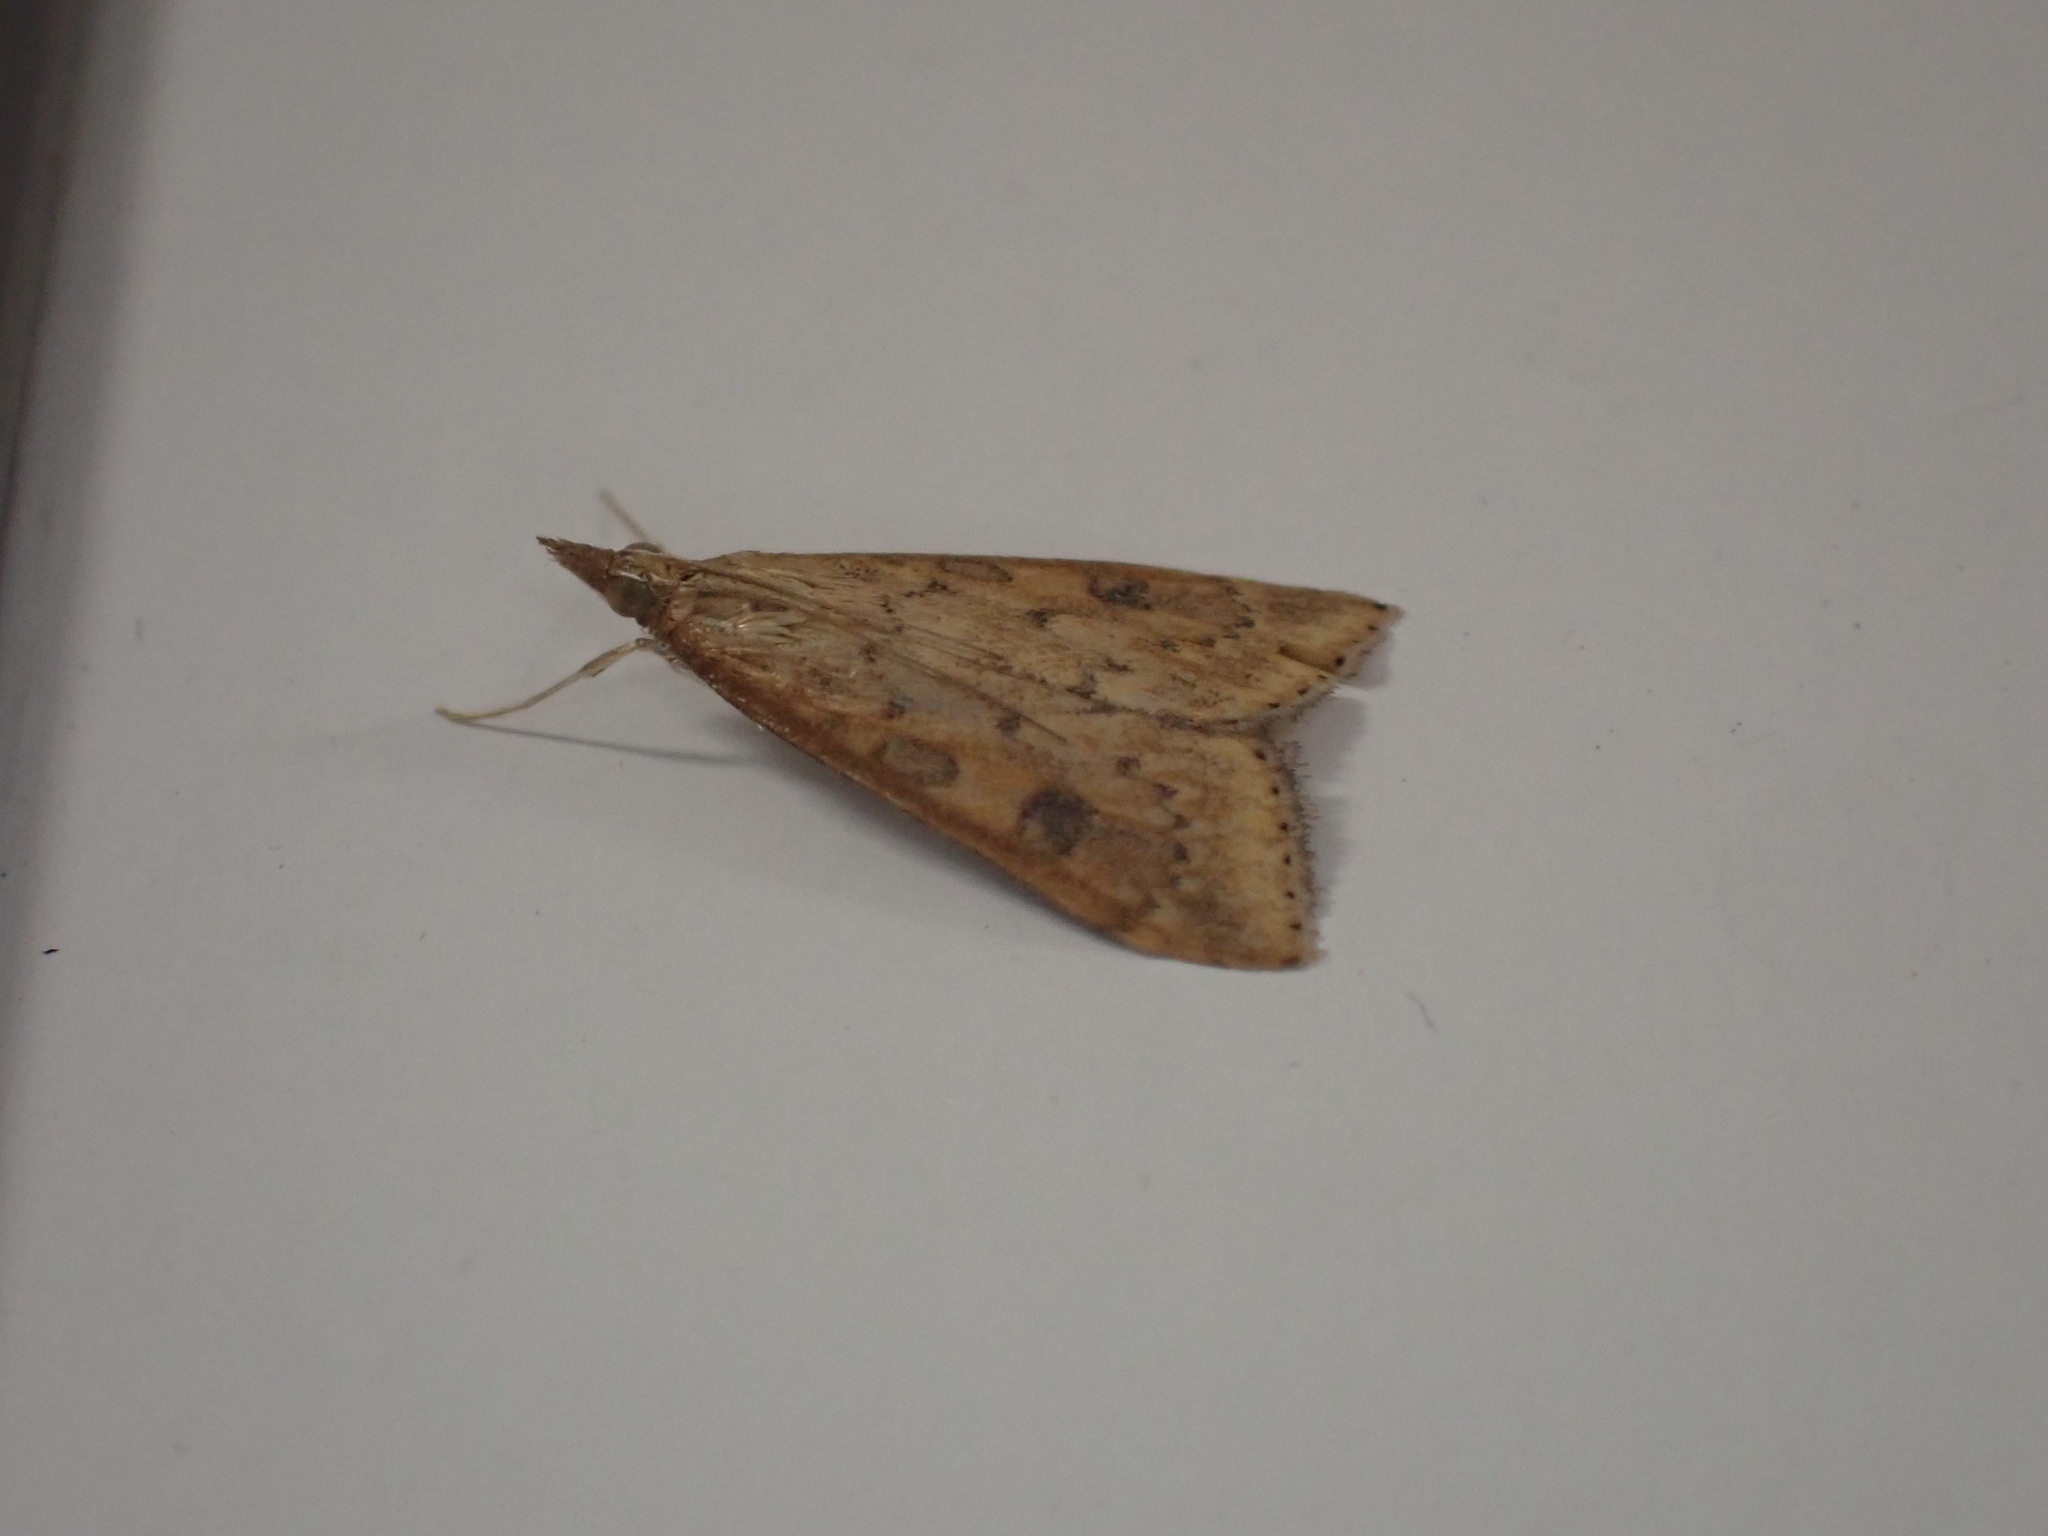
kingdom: Animalia
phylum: Arthropoda
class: Insecta
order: Lepidoptera
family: Crambidae
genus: Udea
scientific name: Udea ferrugalis
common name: Rusty dot
